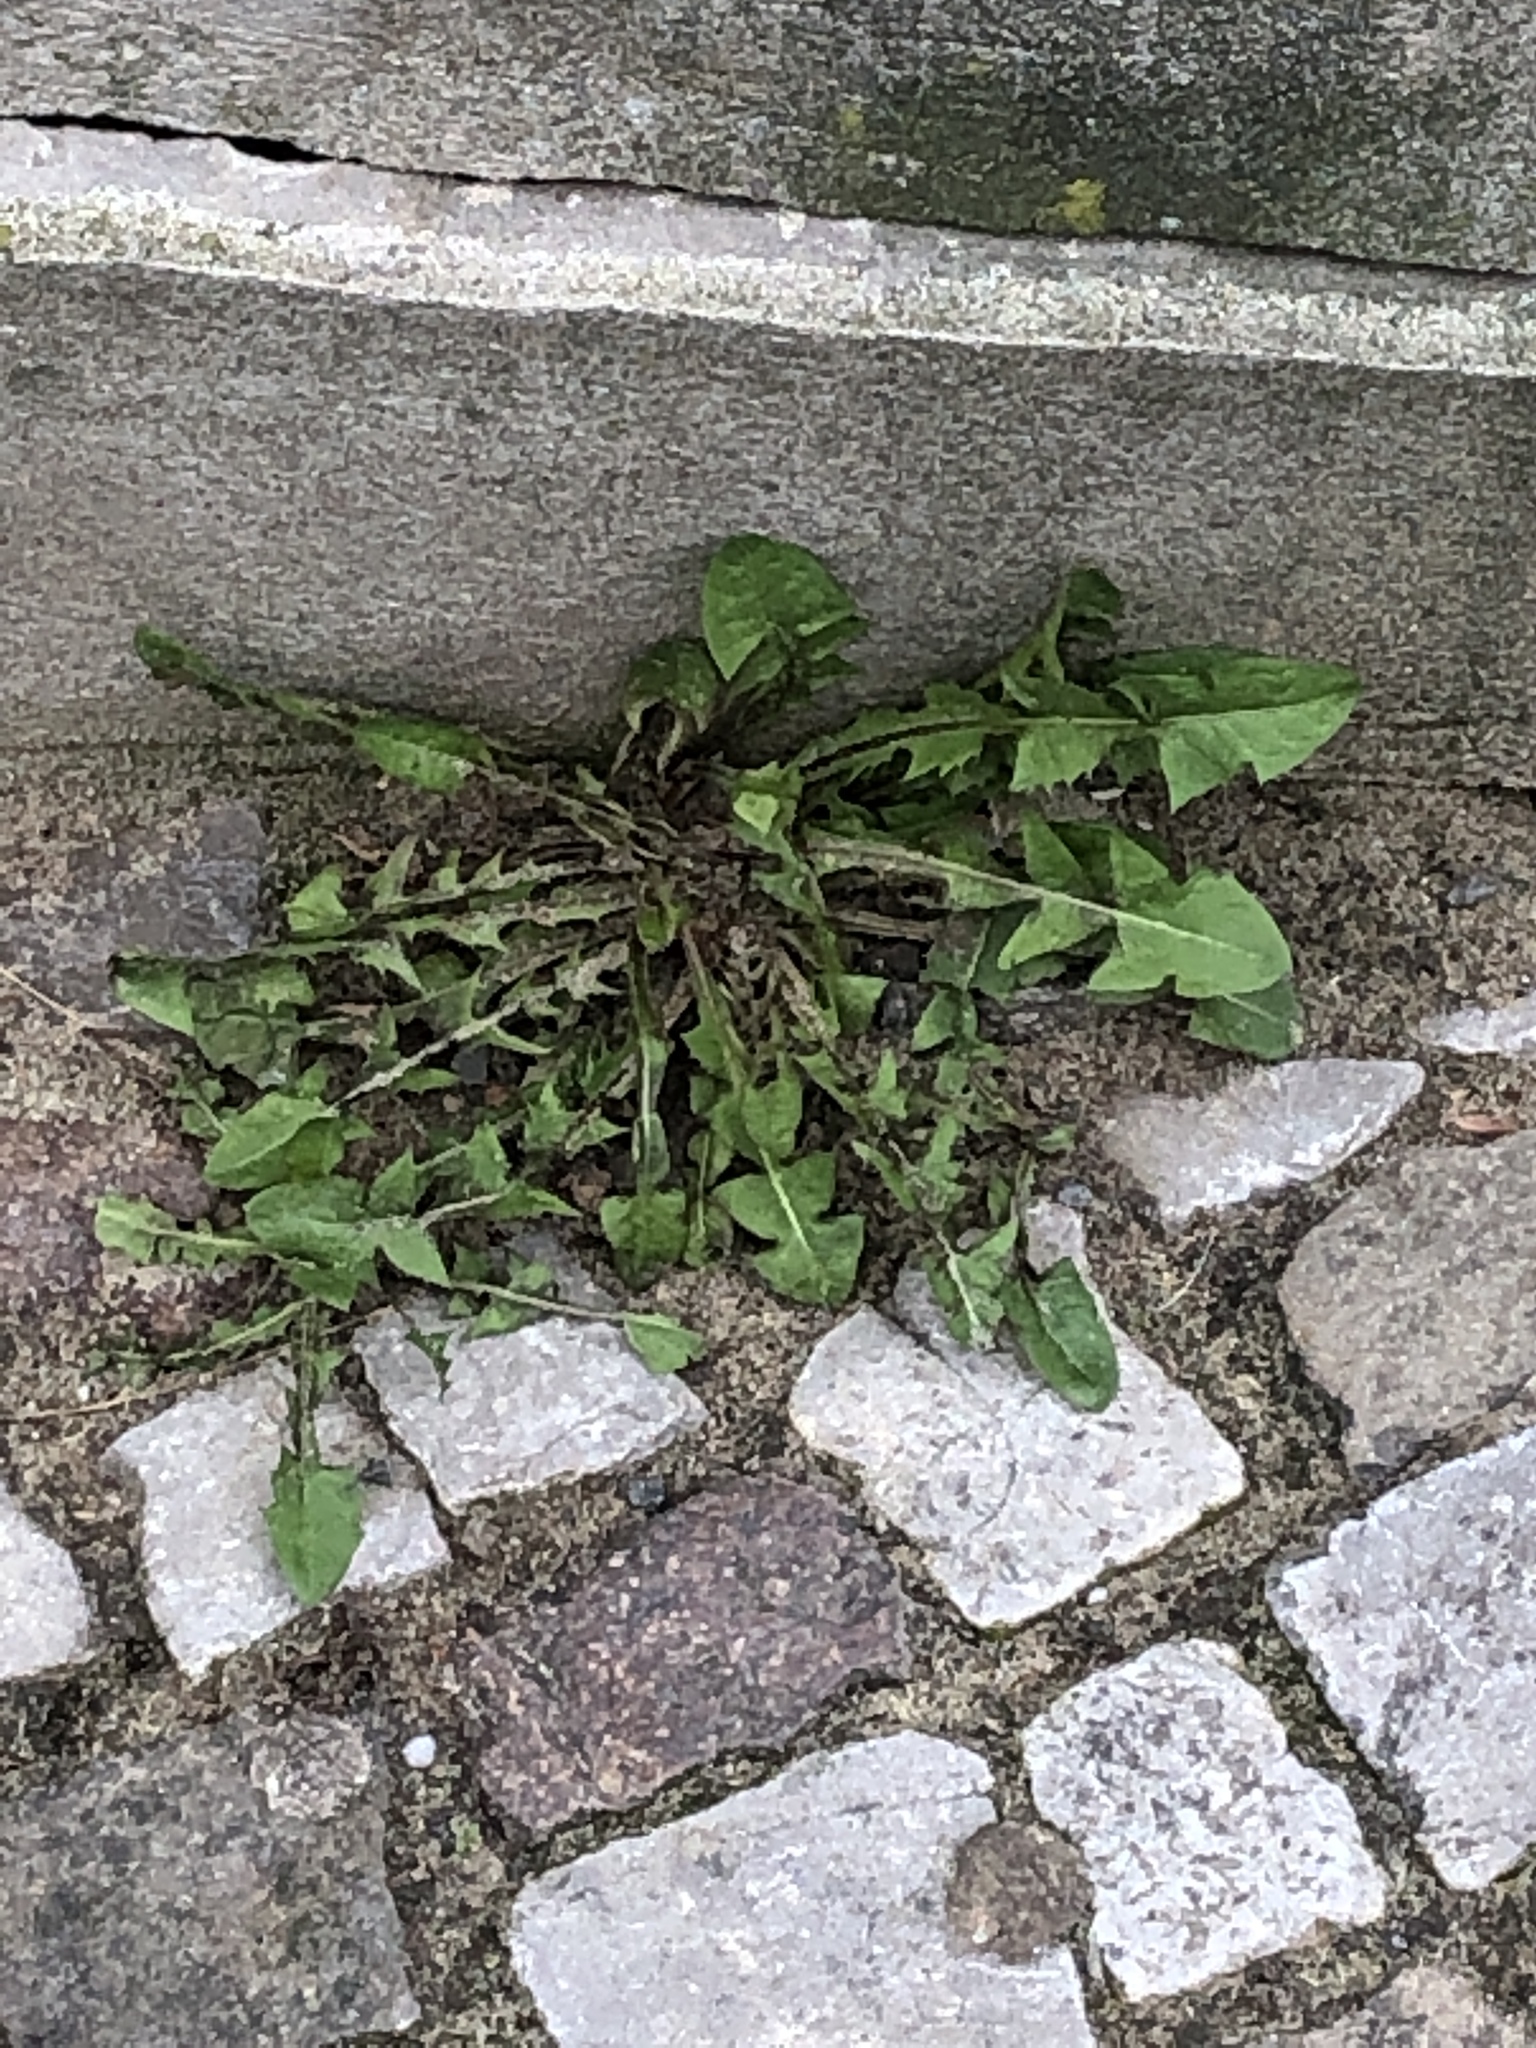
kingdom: Plantae
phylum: Tracheophyta
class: Magnoliopsida
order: Asterales
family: Asteraceae
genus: Taraxacum
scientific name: Taraxacum officinale
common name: Common dandelion
